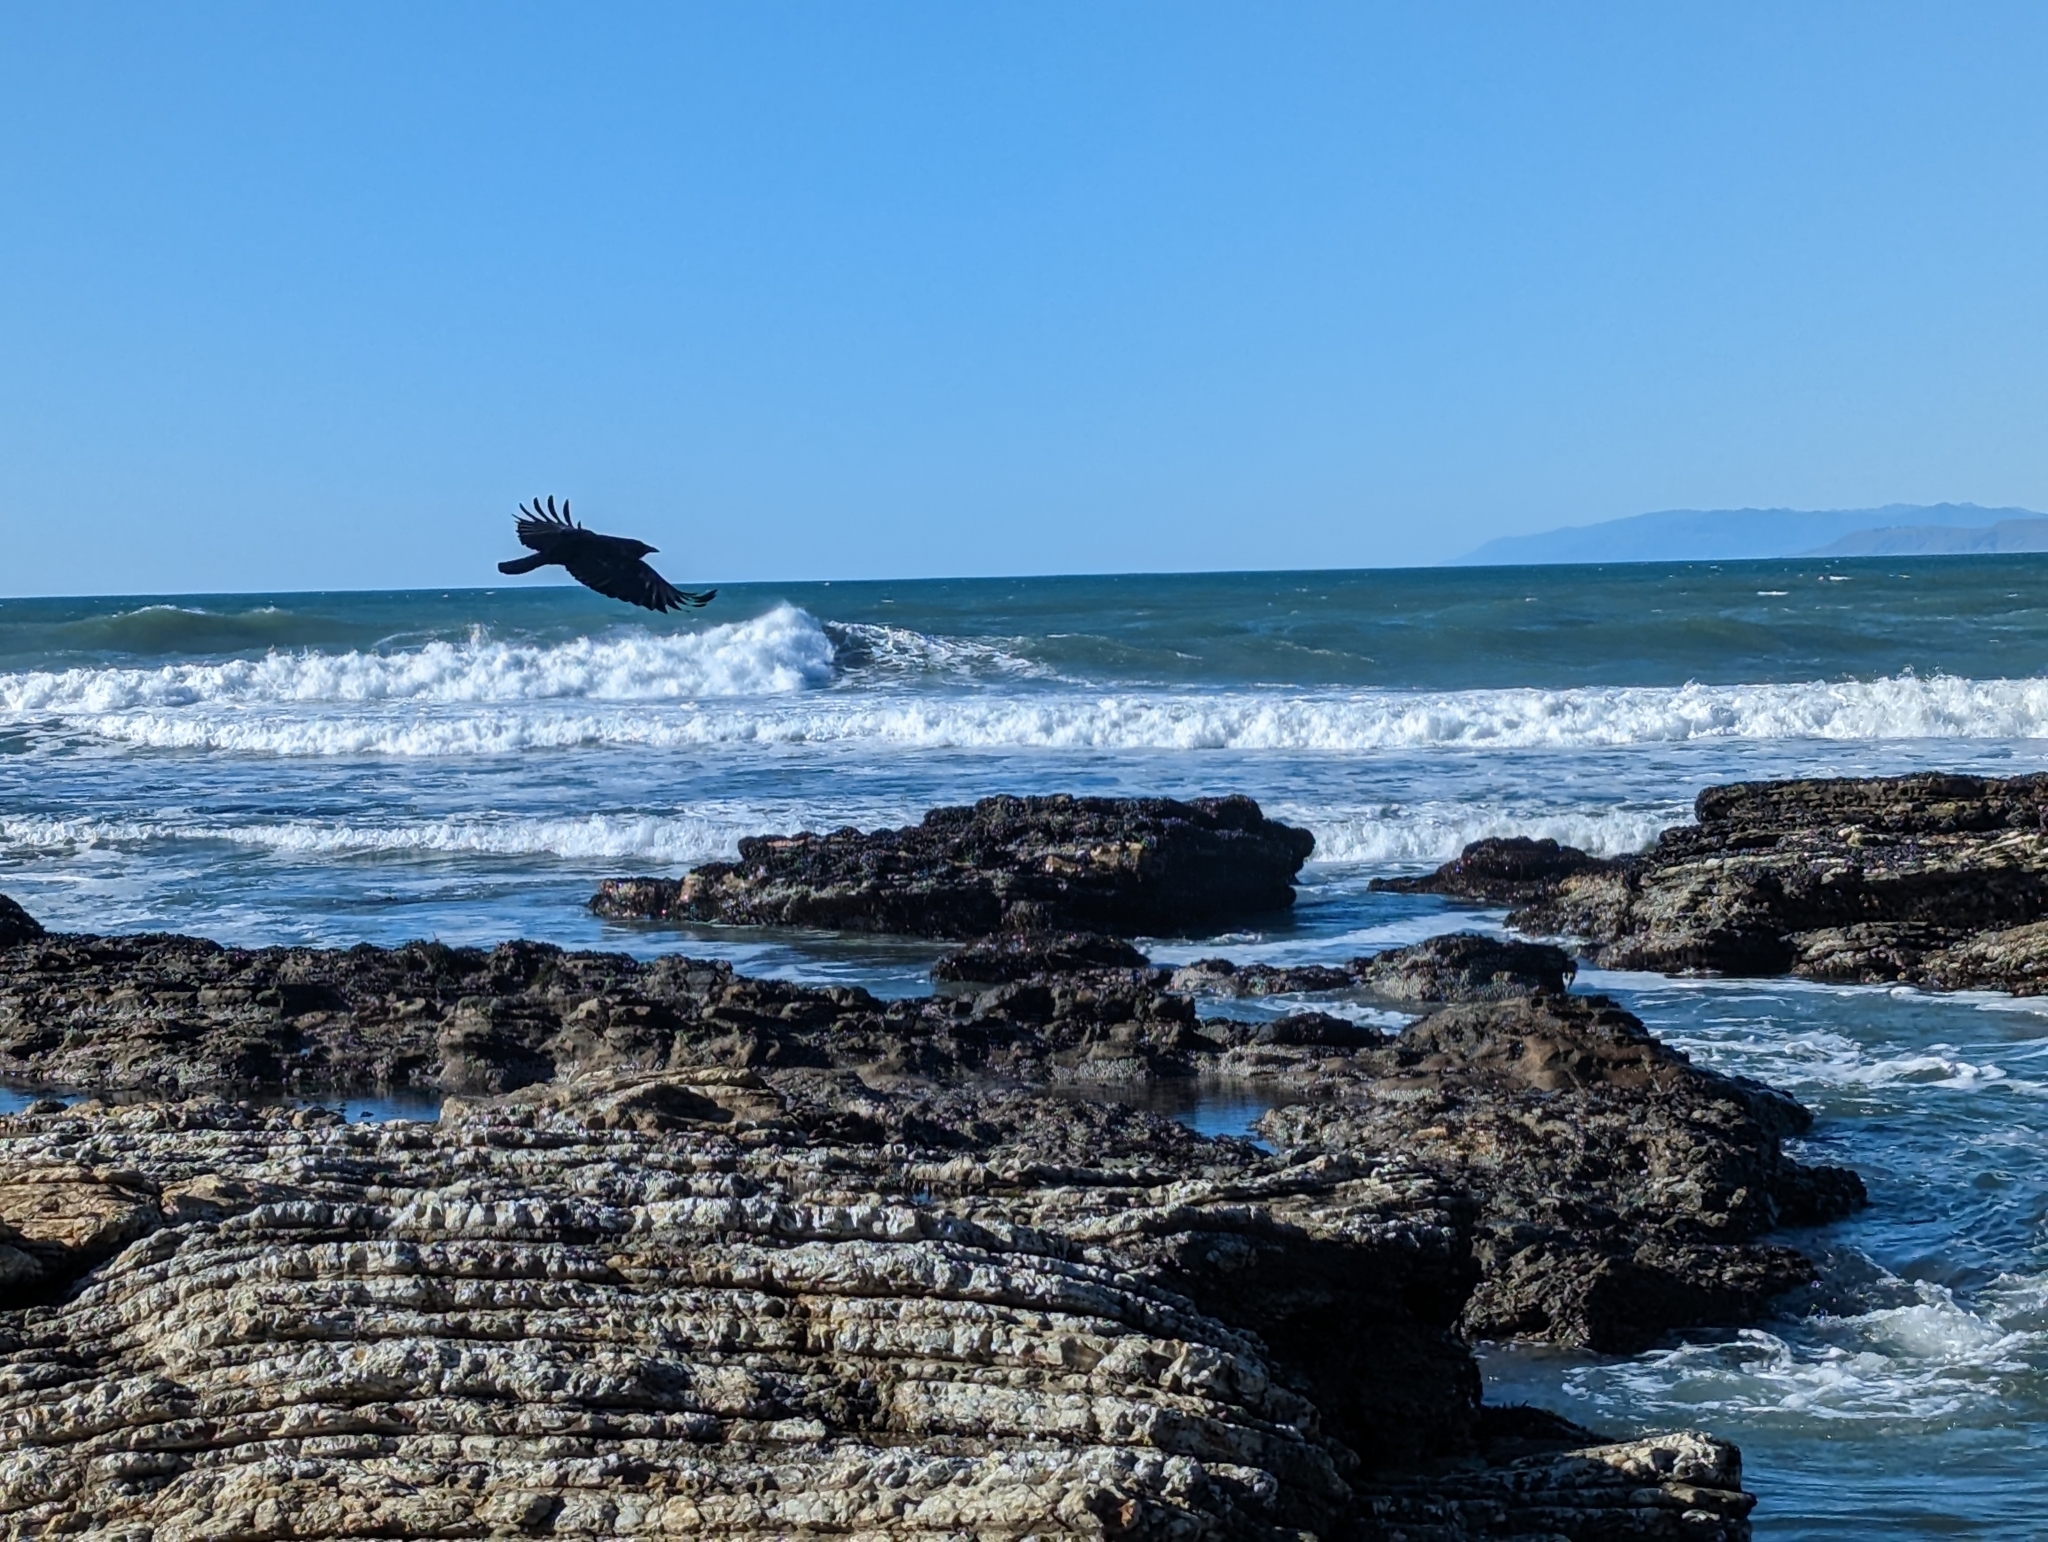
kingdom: Animalia
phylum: Chordata
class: Aves
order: Passeriformes
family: Corvidae
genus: Corvus
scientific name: Corvus brachyrhynchos
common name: American crow
